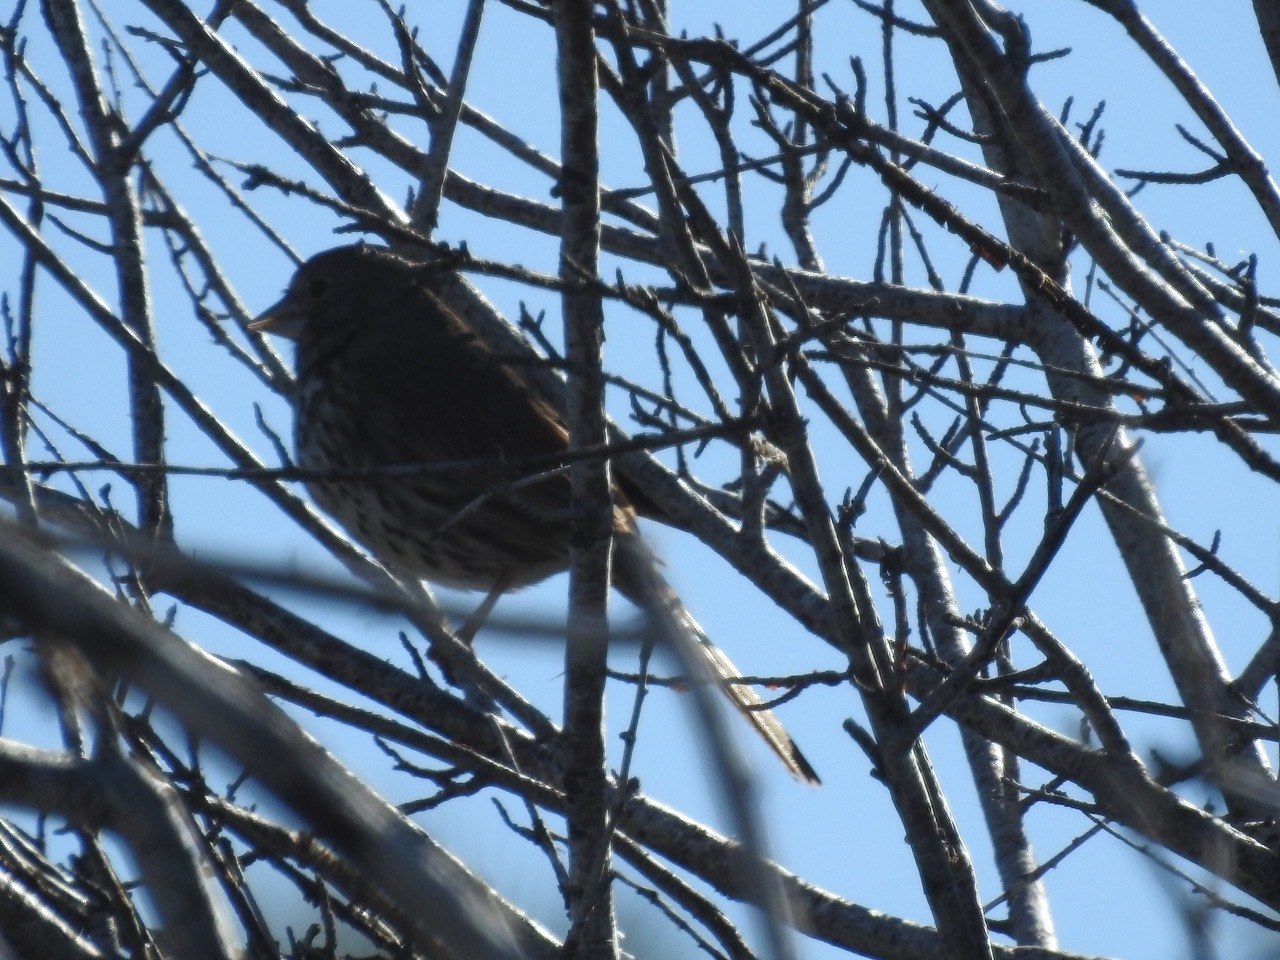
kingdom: Animalia
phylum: Chordata
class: Aves
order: Passeriformes
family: Passerellidae
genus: Passerella
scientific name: Passerella megarhyncha
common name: Thick-billed fox sparrow
